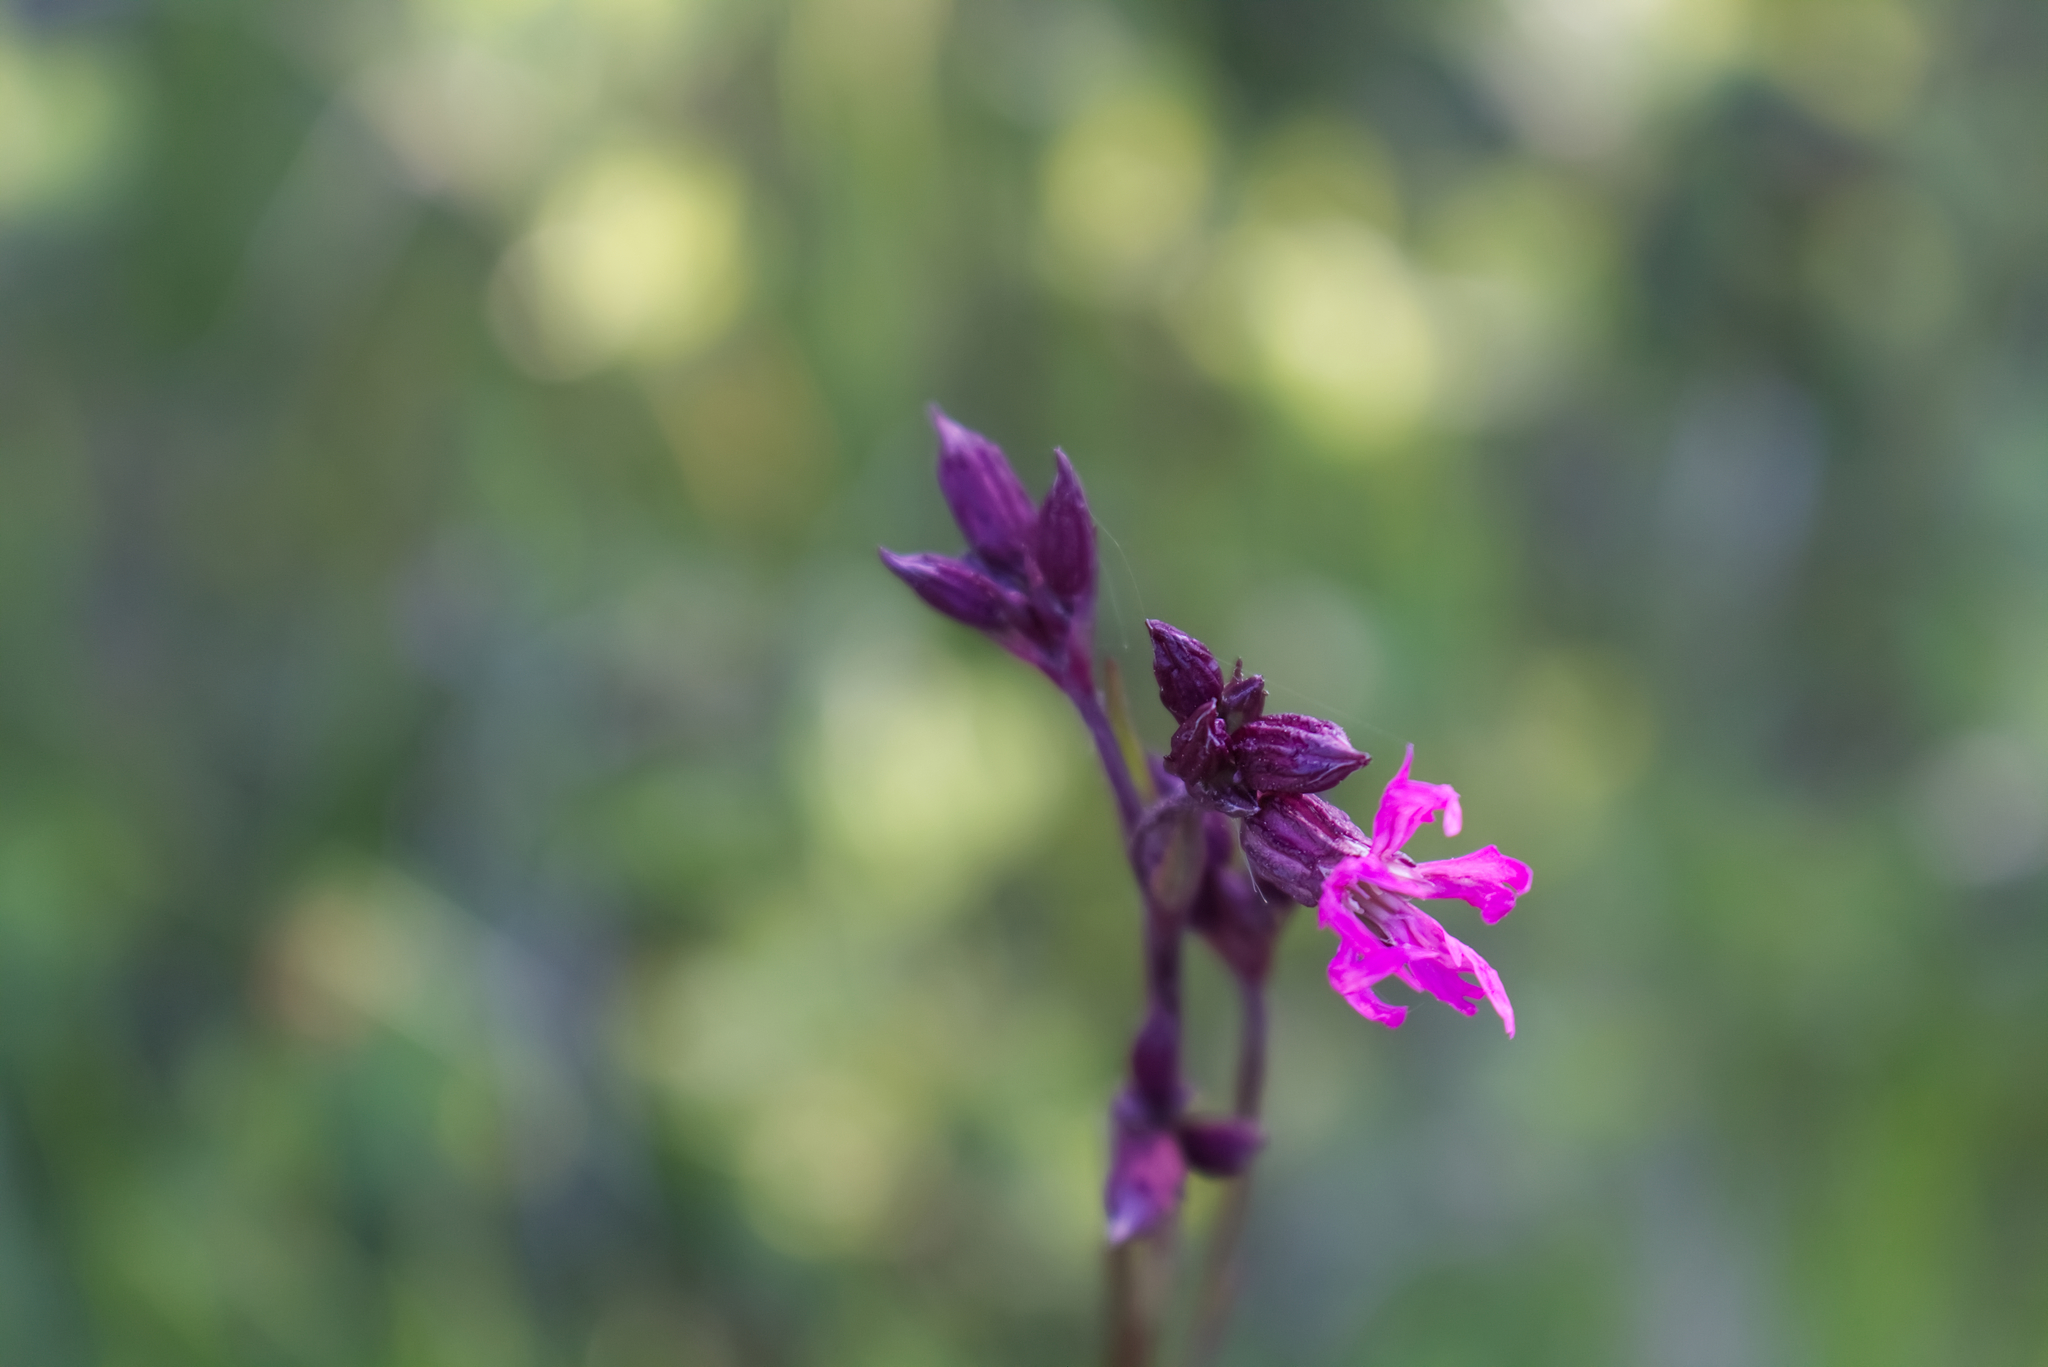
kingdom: Plantae
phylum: Tracheophyta
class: Magnoliopsida
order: Caryophyllales
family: Caryophyllaceae
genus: Silene
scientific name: Silene flos-cuculi
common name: Ragged-robin
